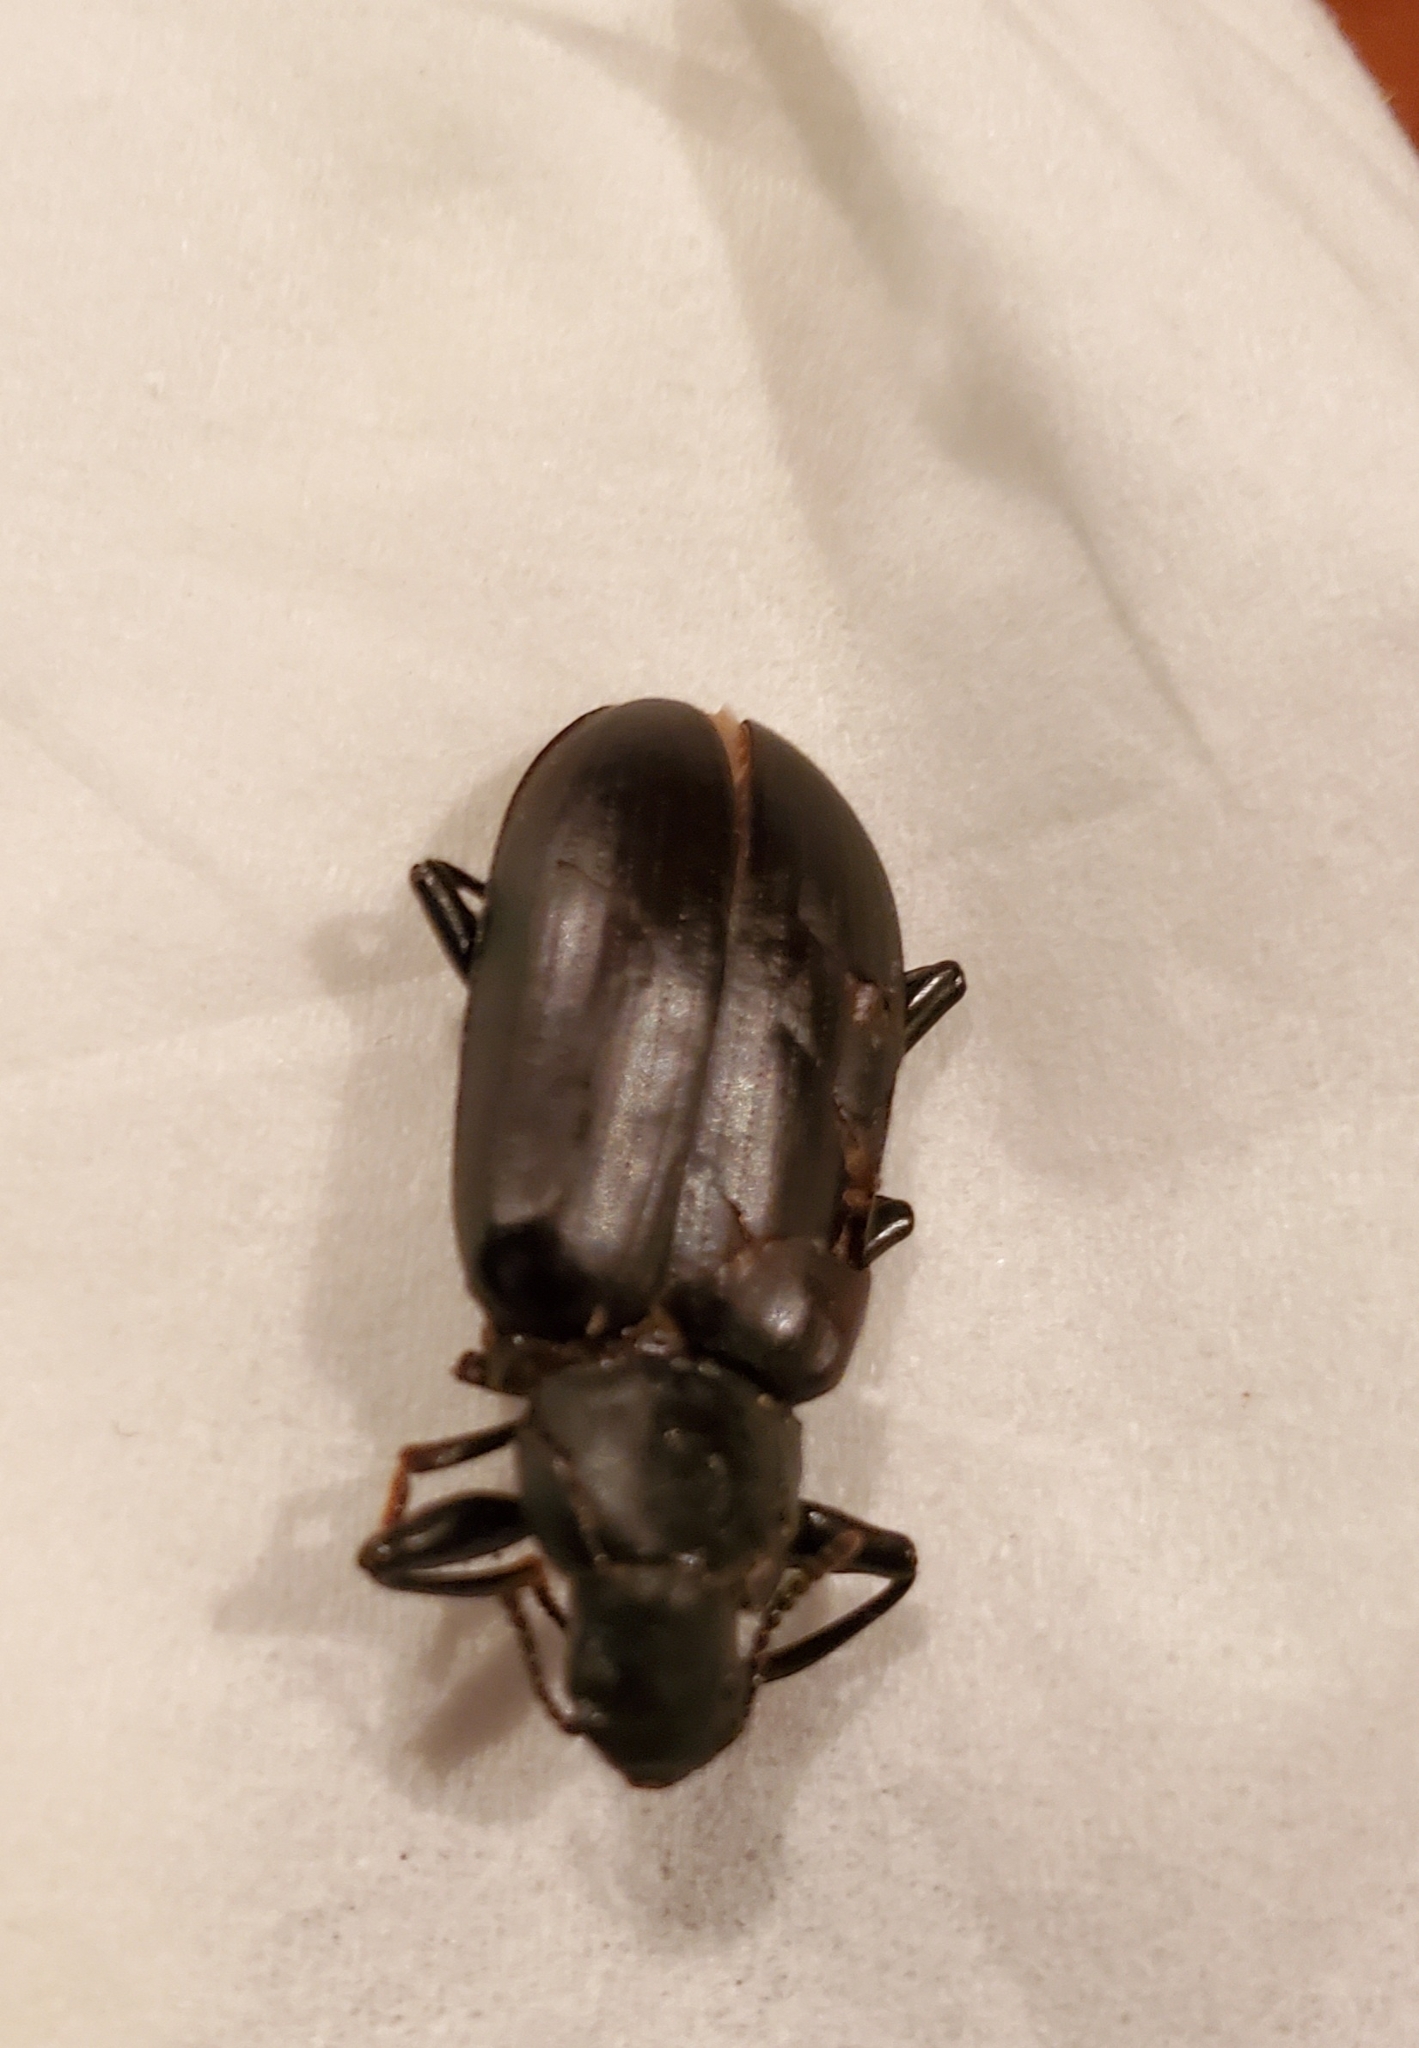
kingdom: Animalia
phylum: Arthropoda
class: Insecta
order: Coleoptera
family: Tenebrionidae
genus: Alobates
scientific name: Alobates pensylvanicus
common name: False mealworm beetle
